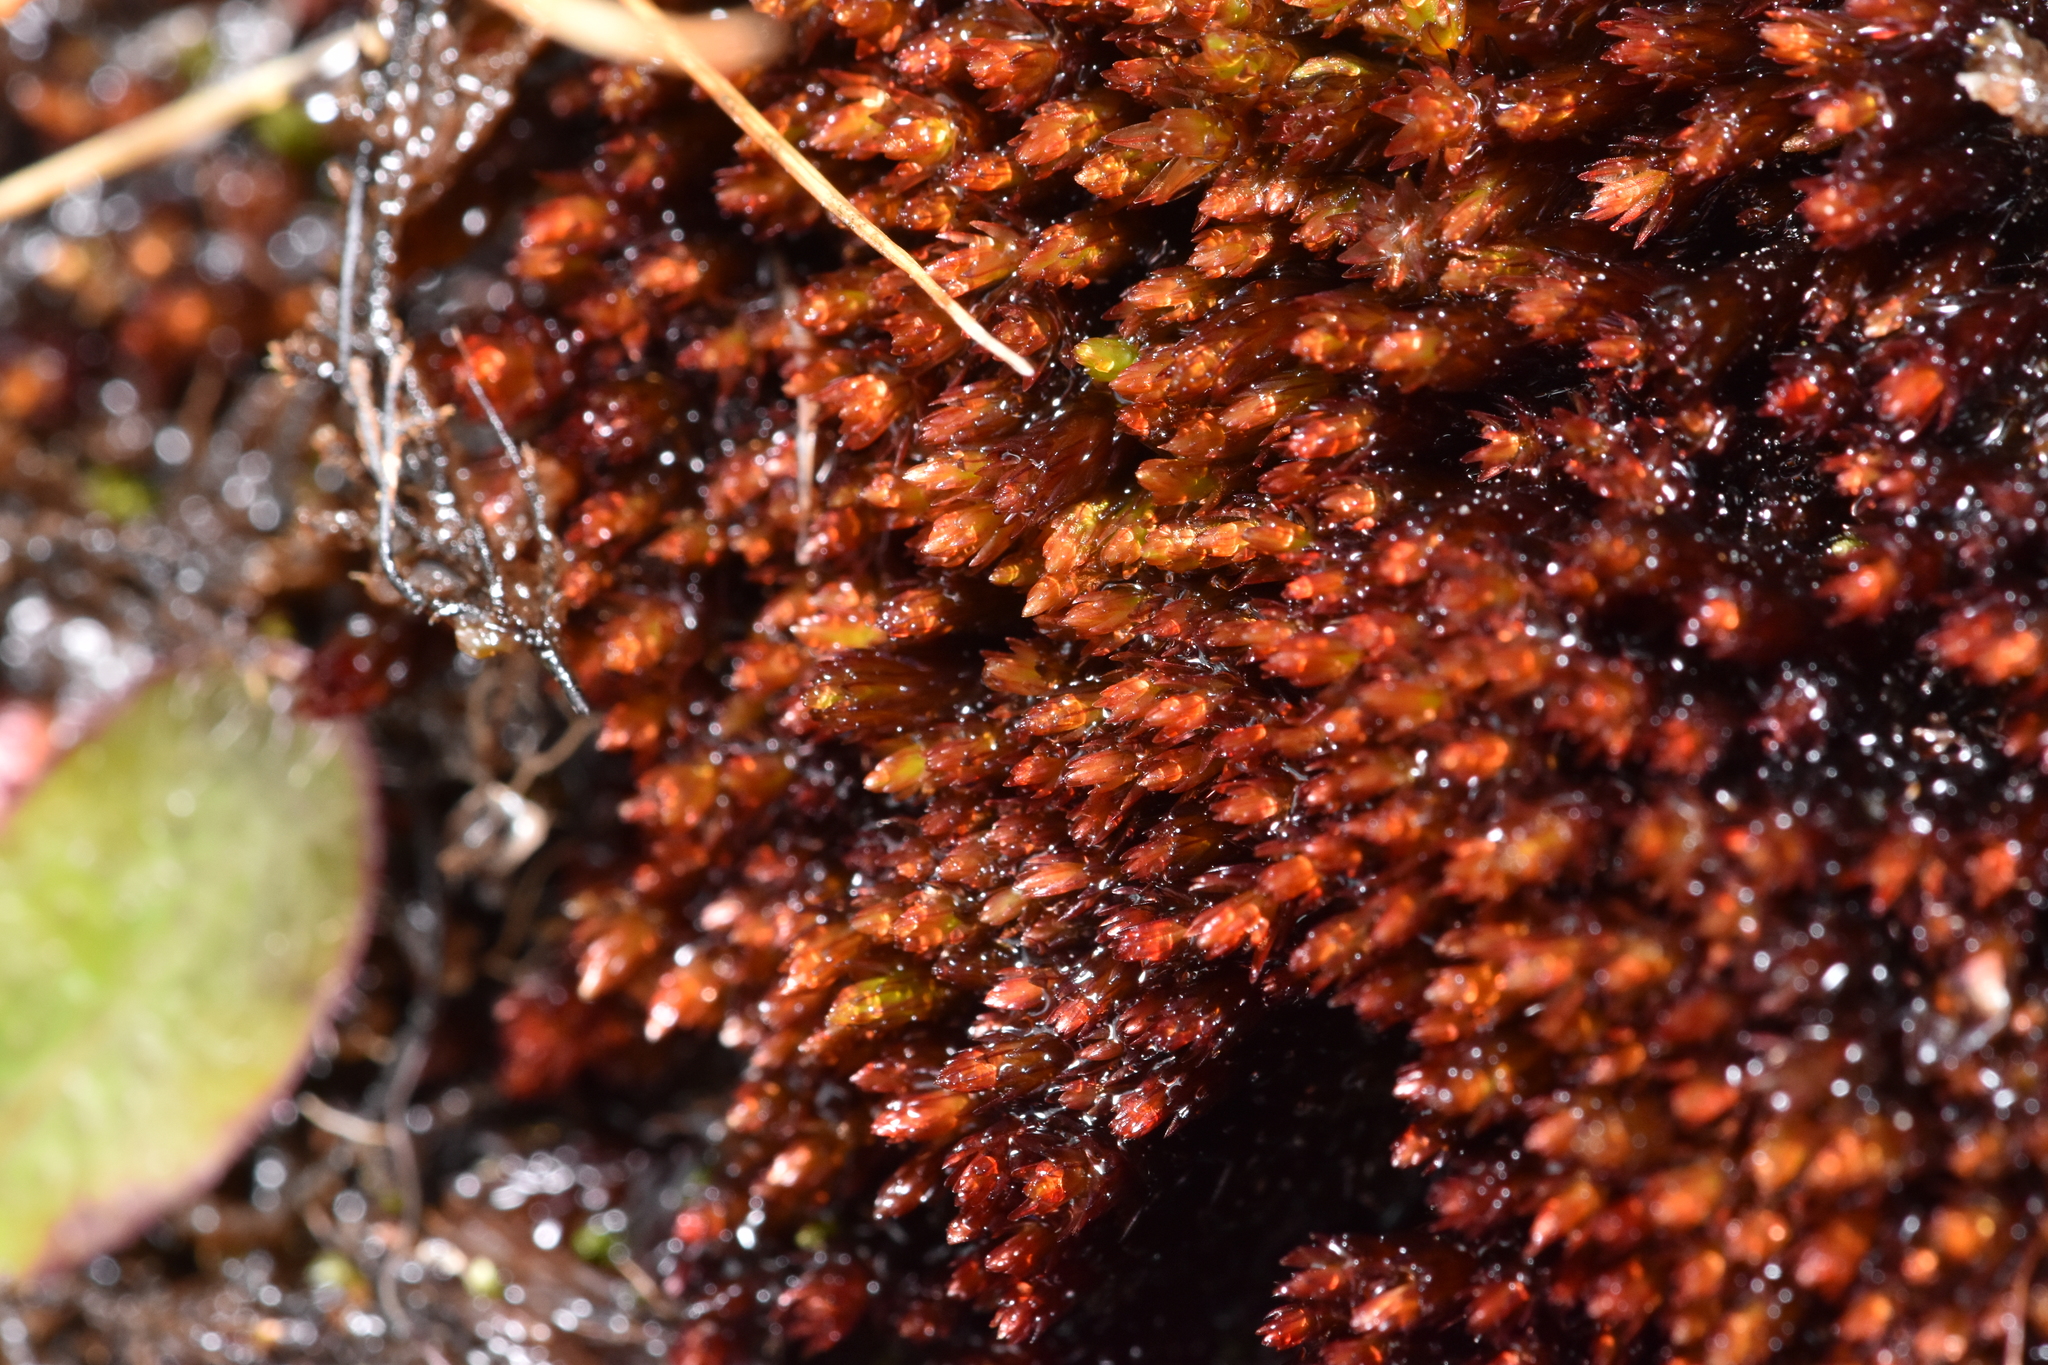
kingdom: Plantae
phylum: Bryophyta
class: Bryopsida
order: Bryales
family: Bryaceae
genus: Imbribryum
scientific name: Imbribryum miniatum
